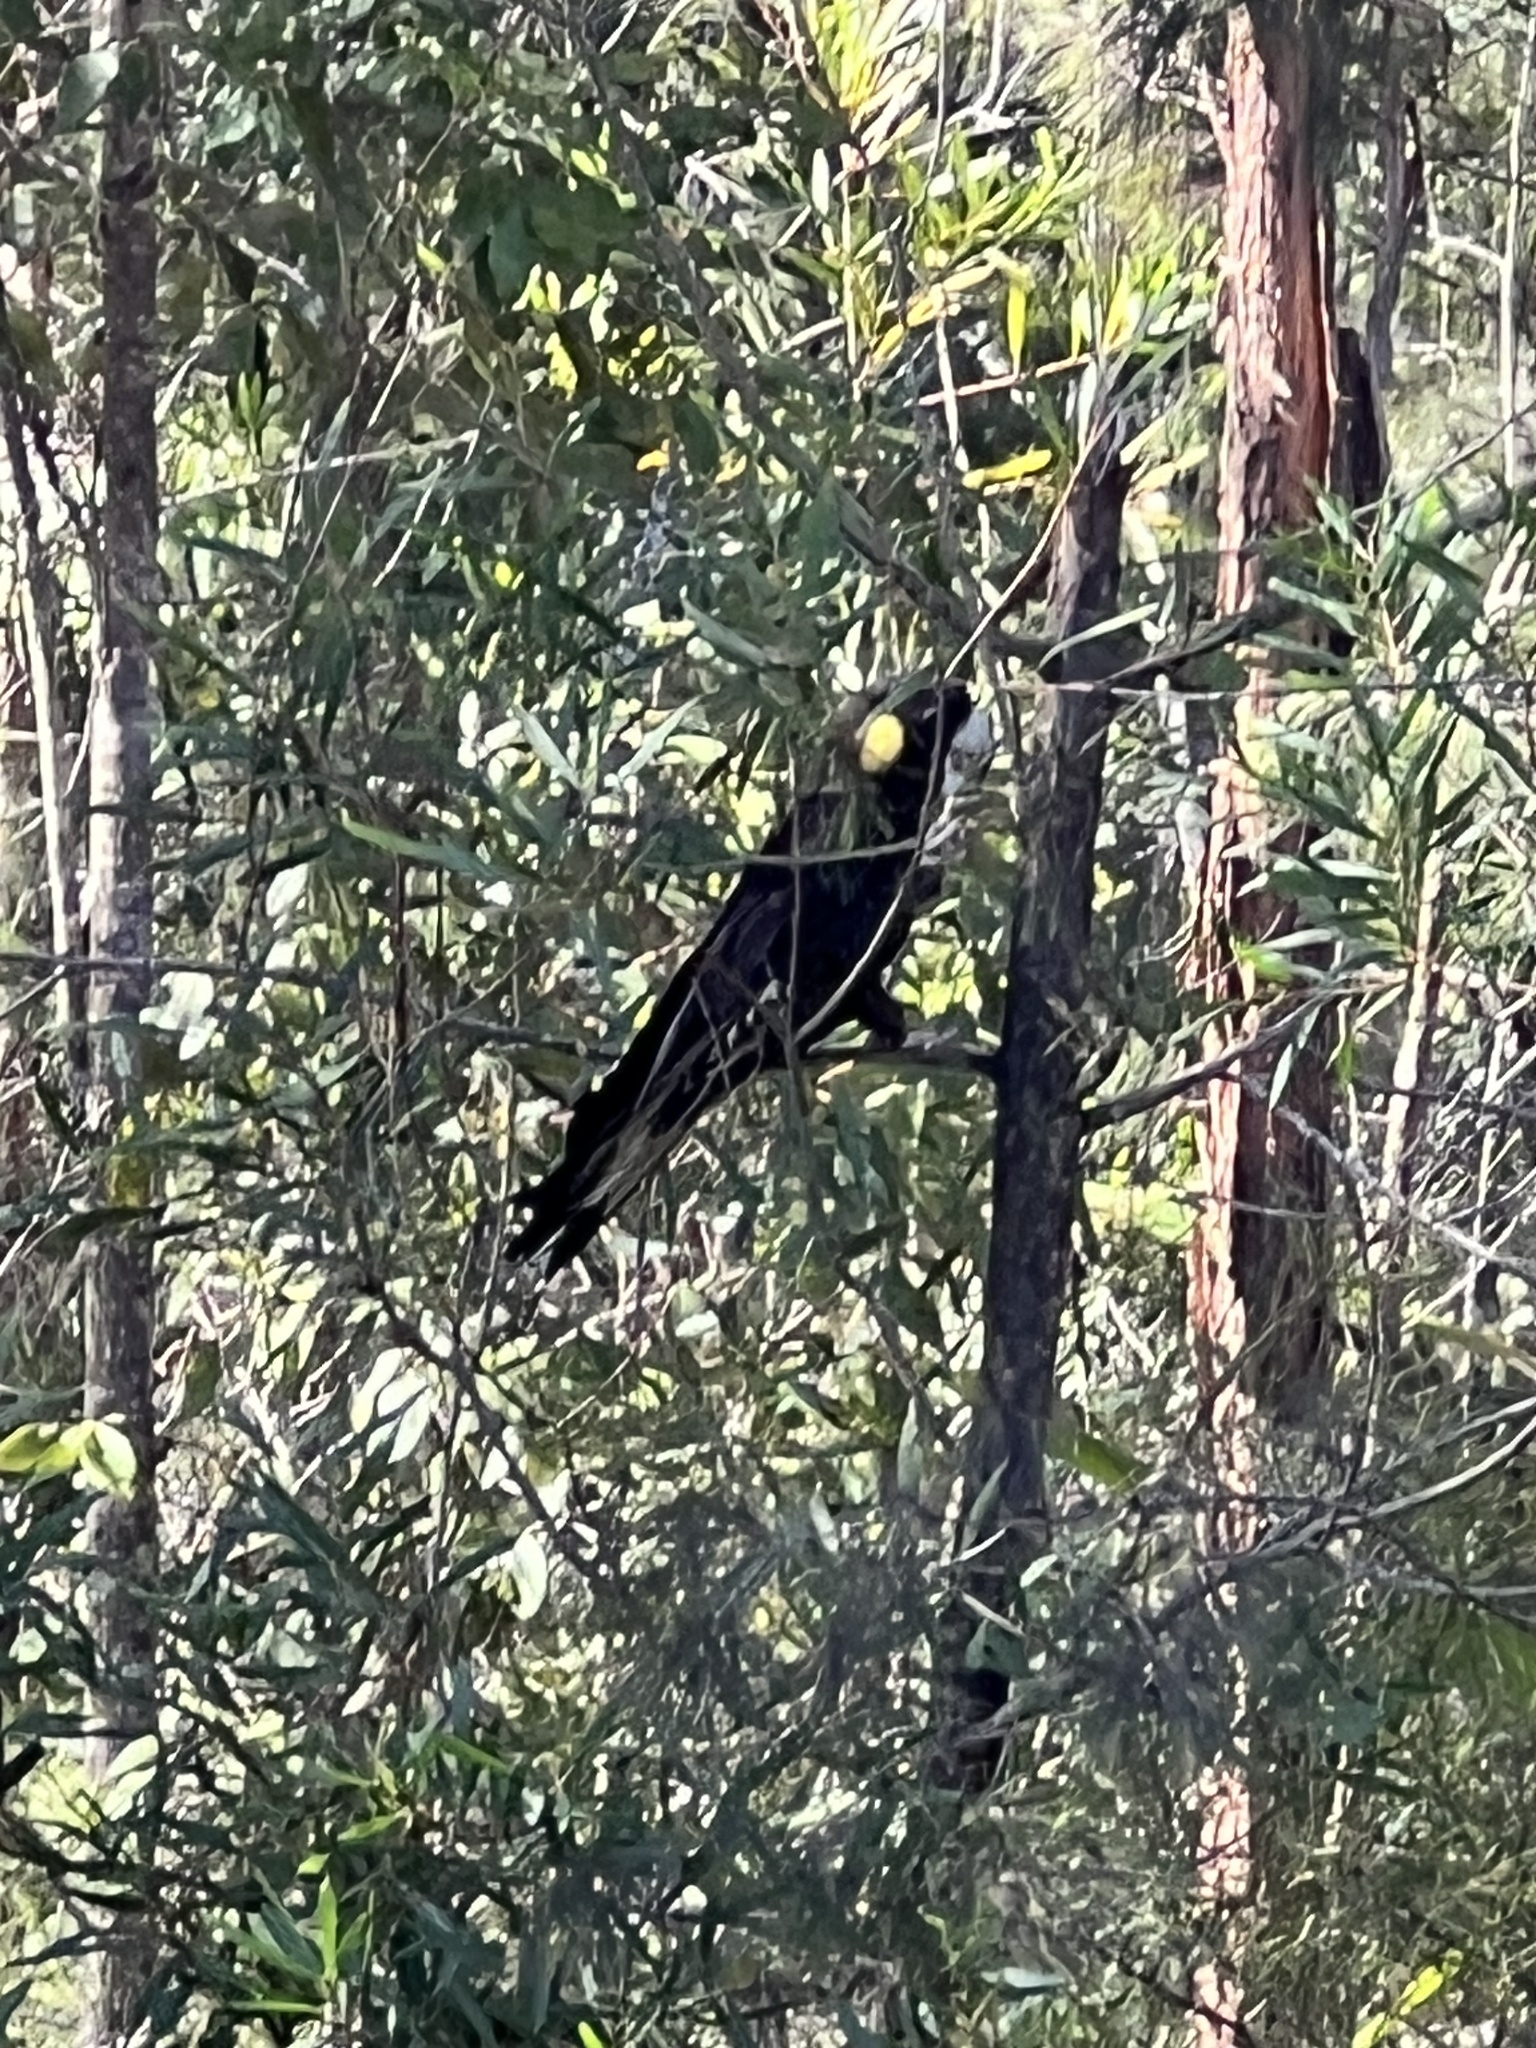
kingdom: Animalia
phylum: Chordata
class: Aves
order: Psittaciformes
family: Cacatuidae
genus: Zanda
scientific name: Zanda funerea
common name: Yellow-tailed black-cockatoo
